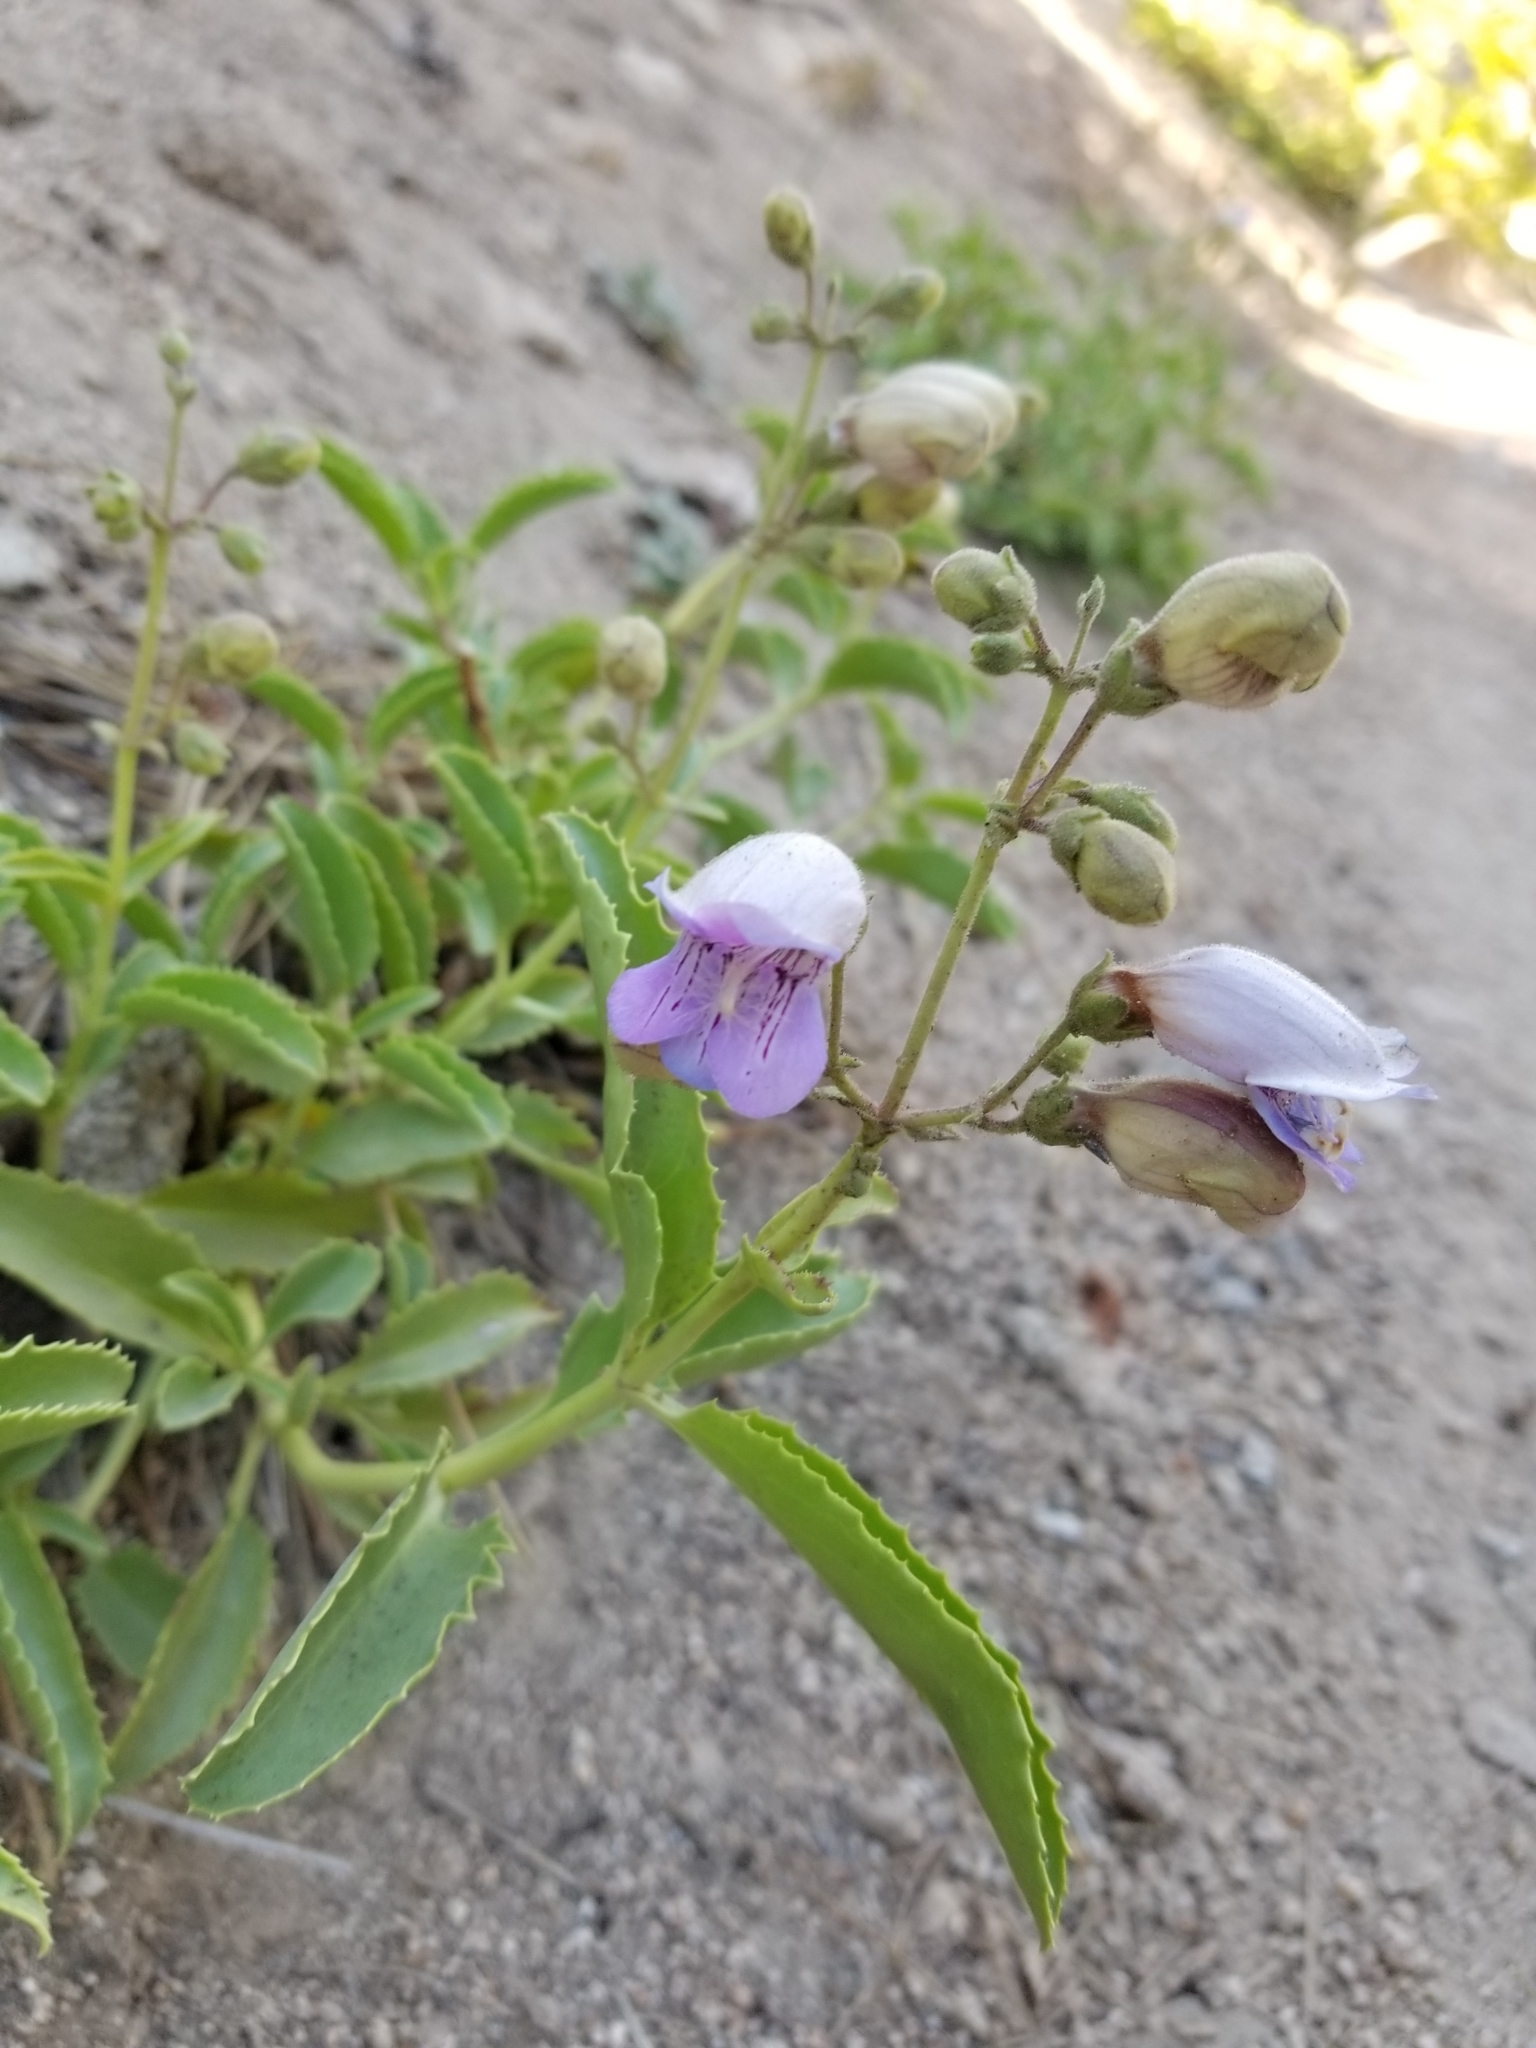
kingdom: Plantae
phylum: Tracheophyta
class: Magnoliopsida
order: Lamiales
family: Plantaginaceae
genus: Penstemon
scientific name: Penstemon grinnellii
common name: Grinnell's beardtongue
